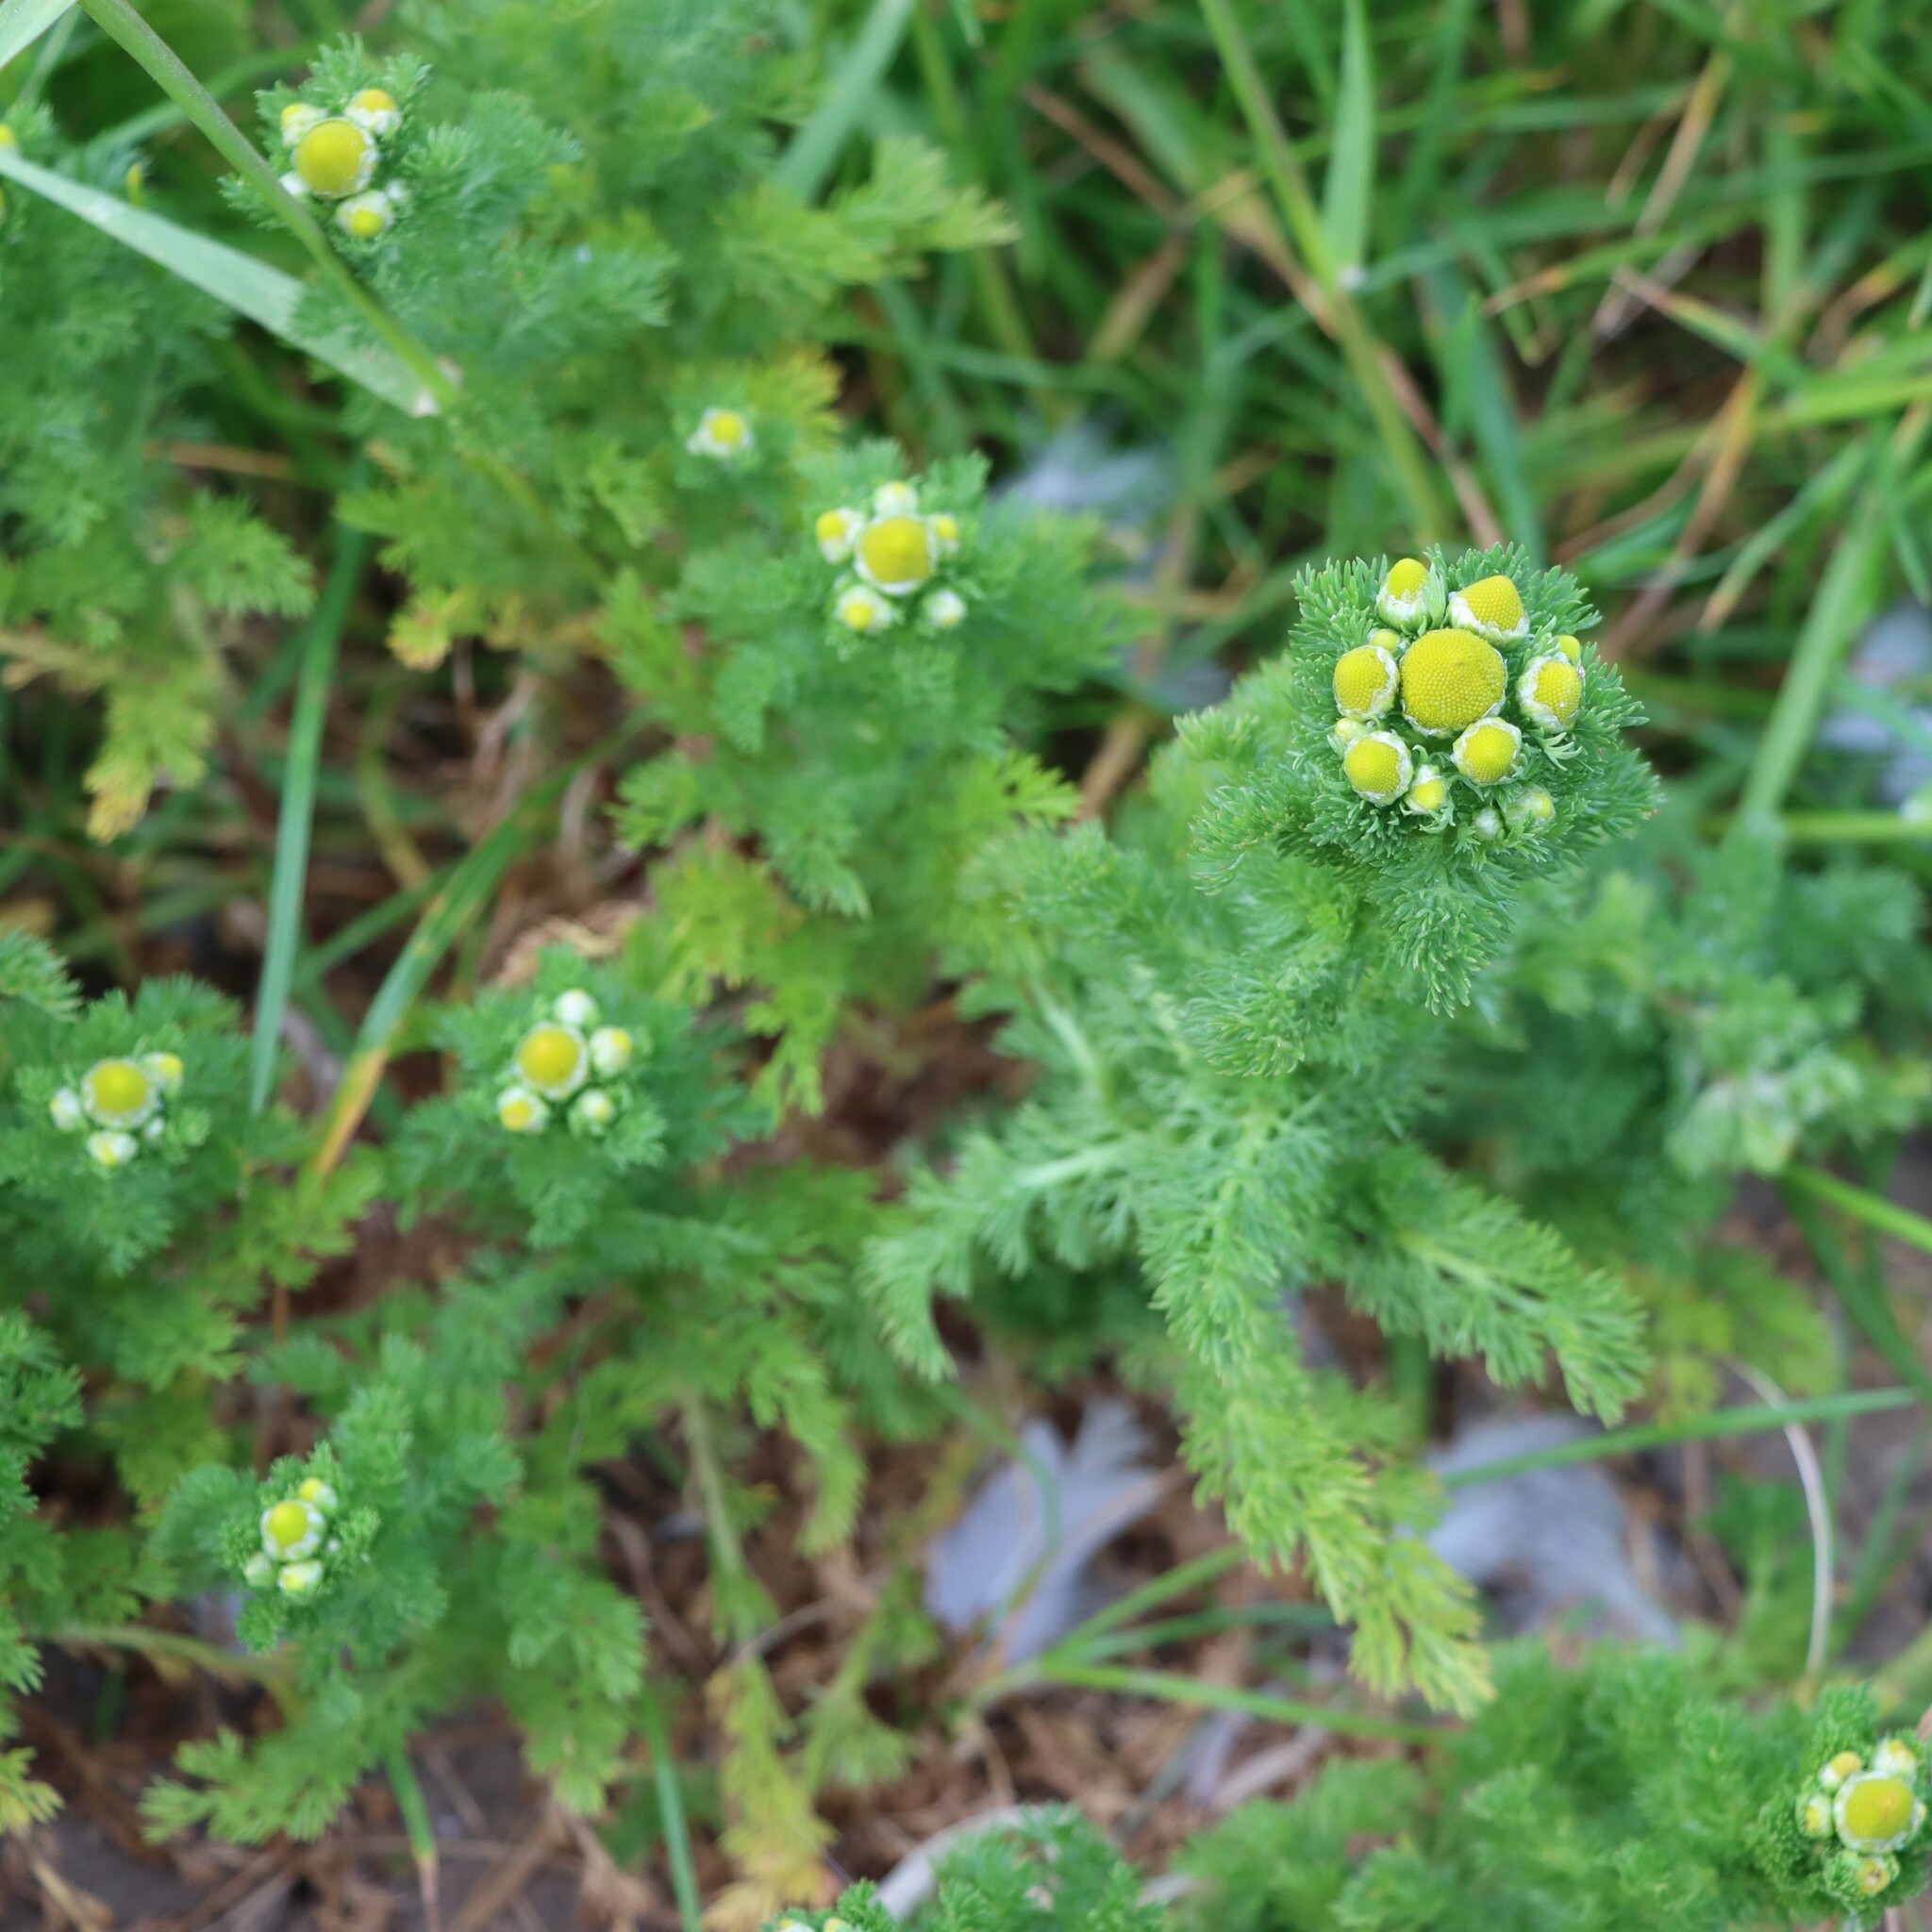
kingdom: Plantae
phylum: Tracheophyta
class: Magnoliopsida
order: Asterales
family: Asteraceae
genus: Matricaria
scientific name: Matricaria discoidea
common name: Disc mayweed
